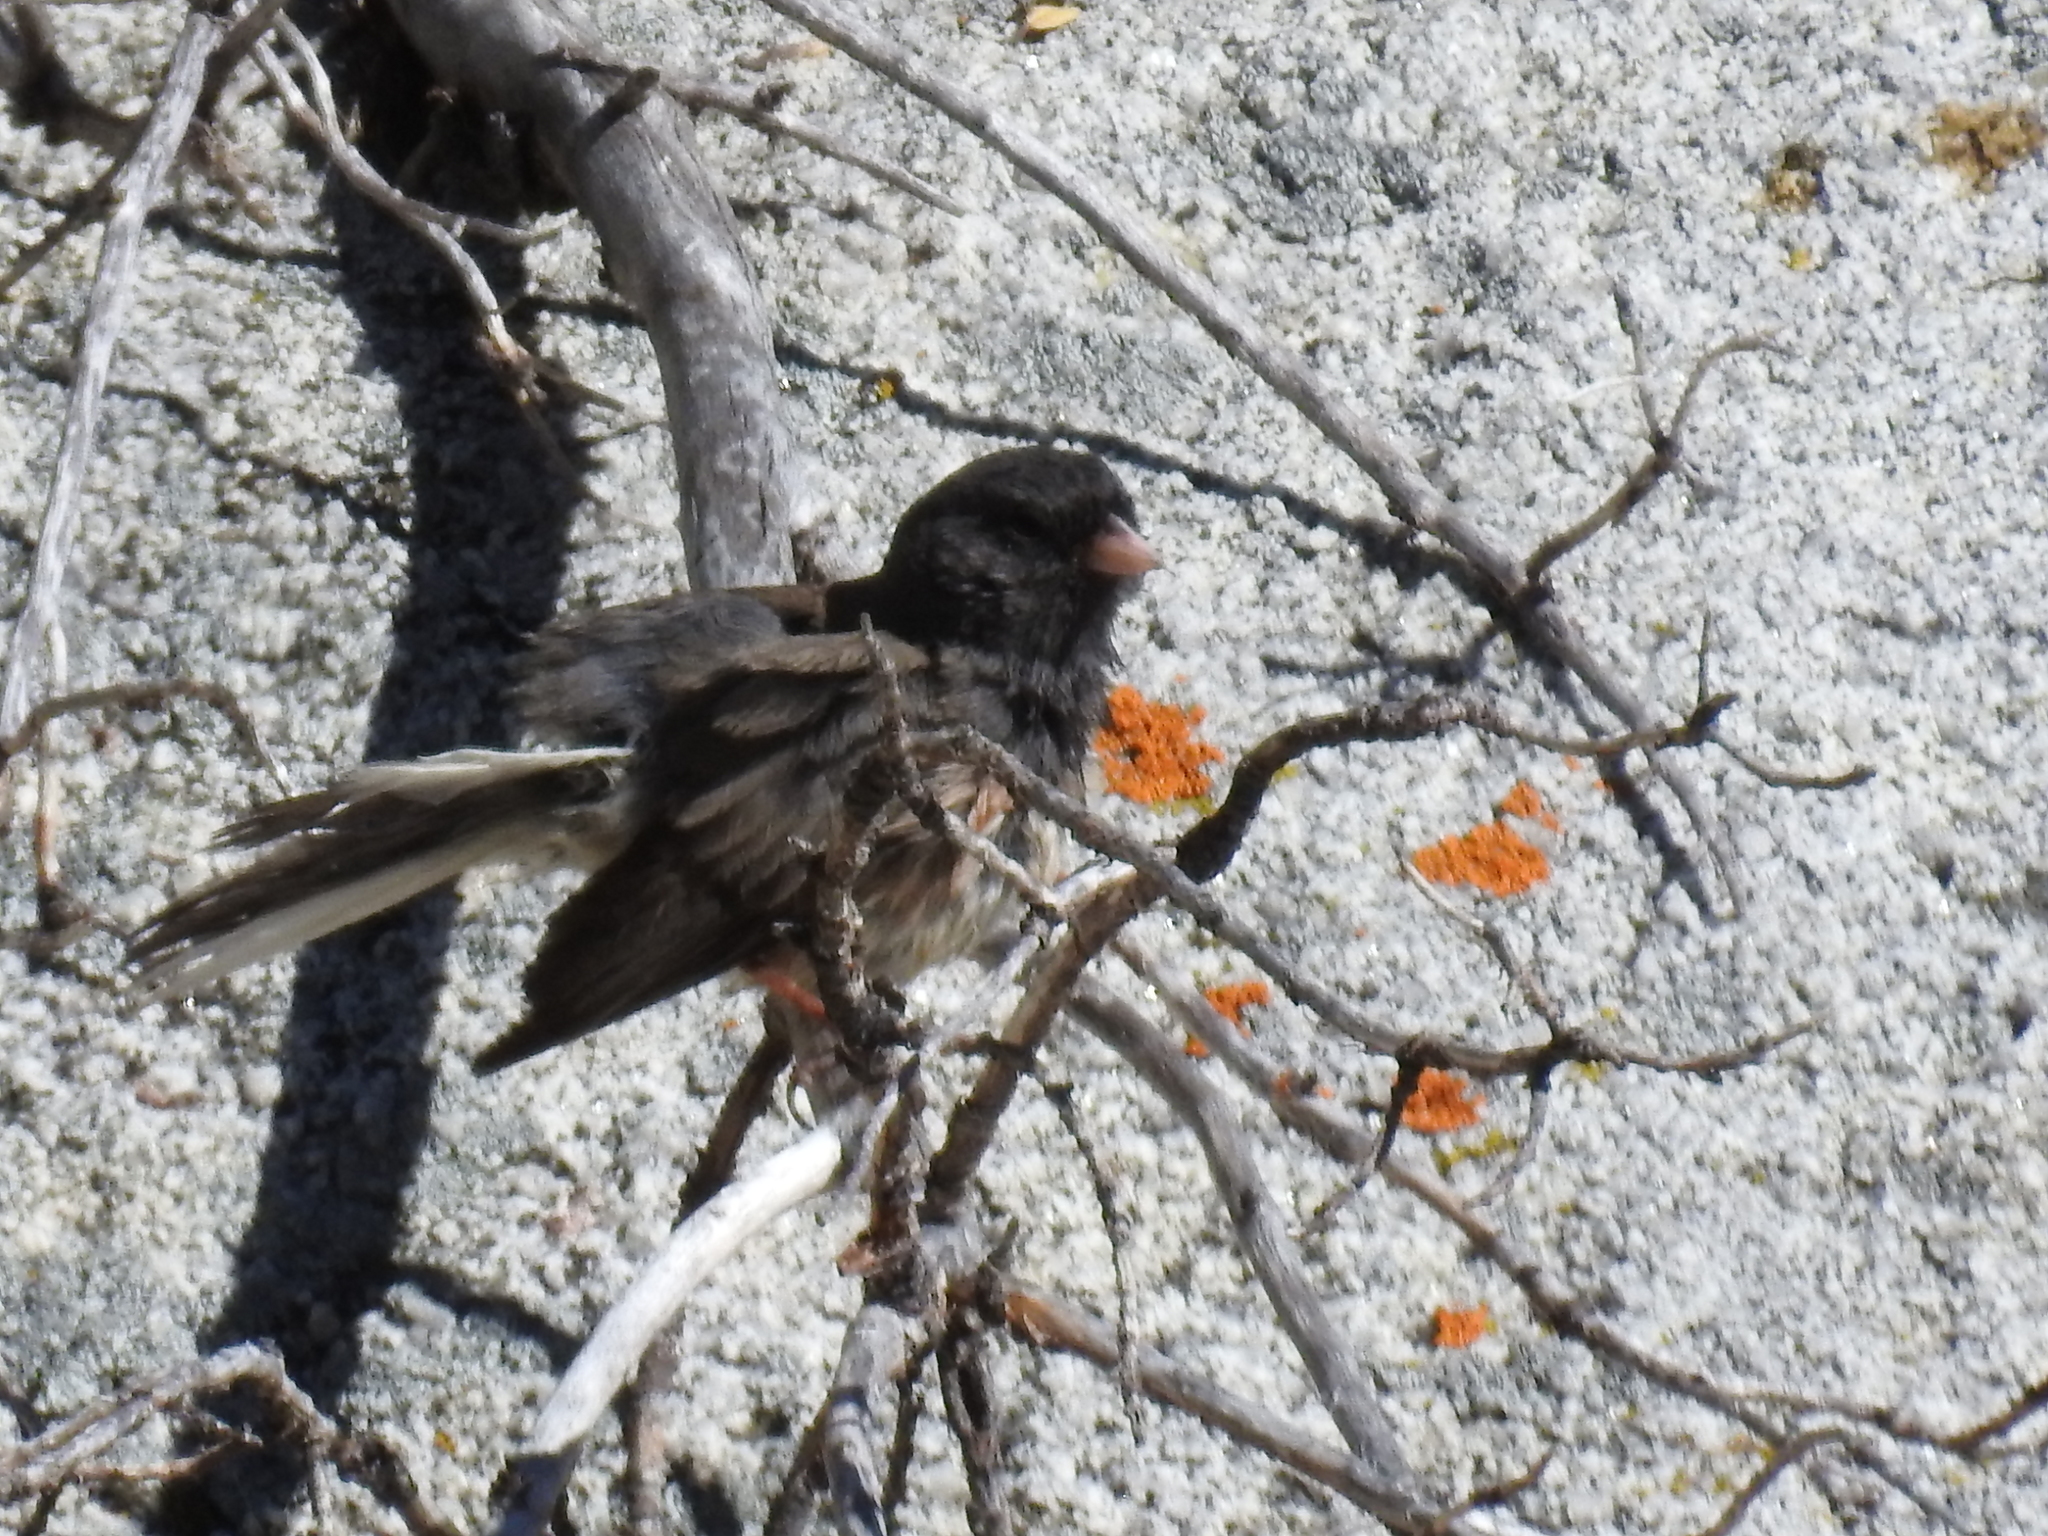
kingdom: Animalia
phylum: Chordata
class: Aves
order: Passeriformes
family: Passerellidae
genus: Junco
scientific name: Junco hyemalis
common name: Dark-eyed junco
